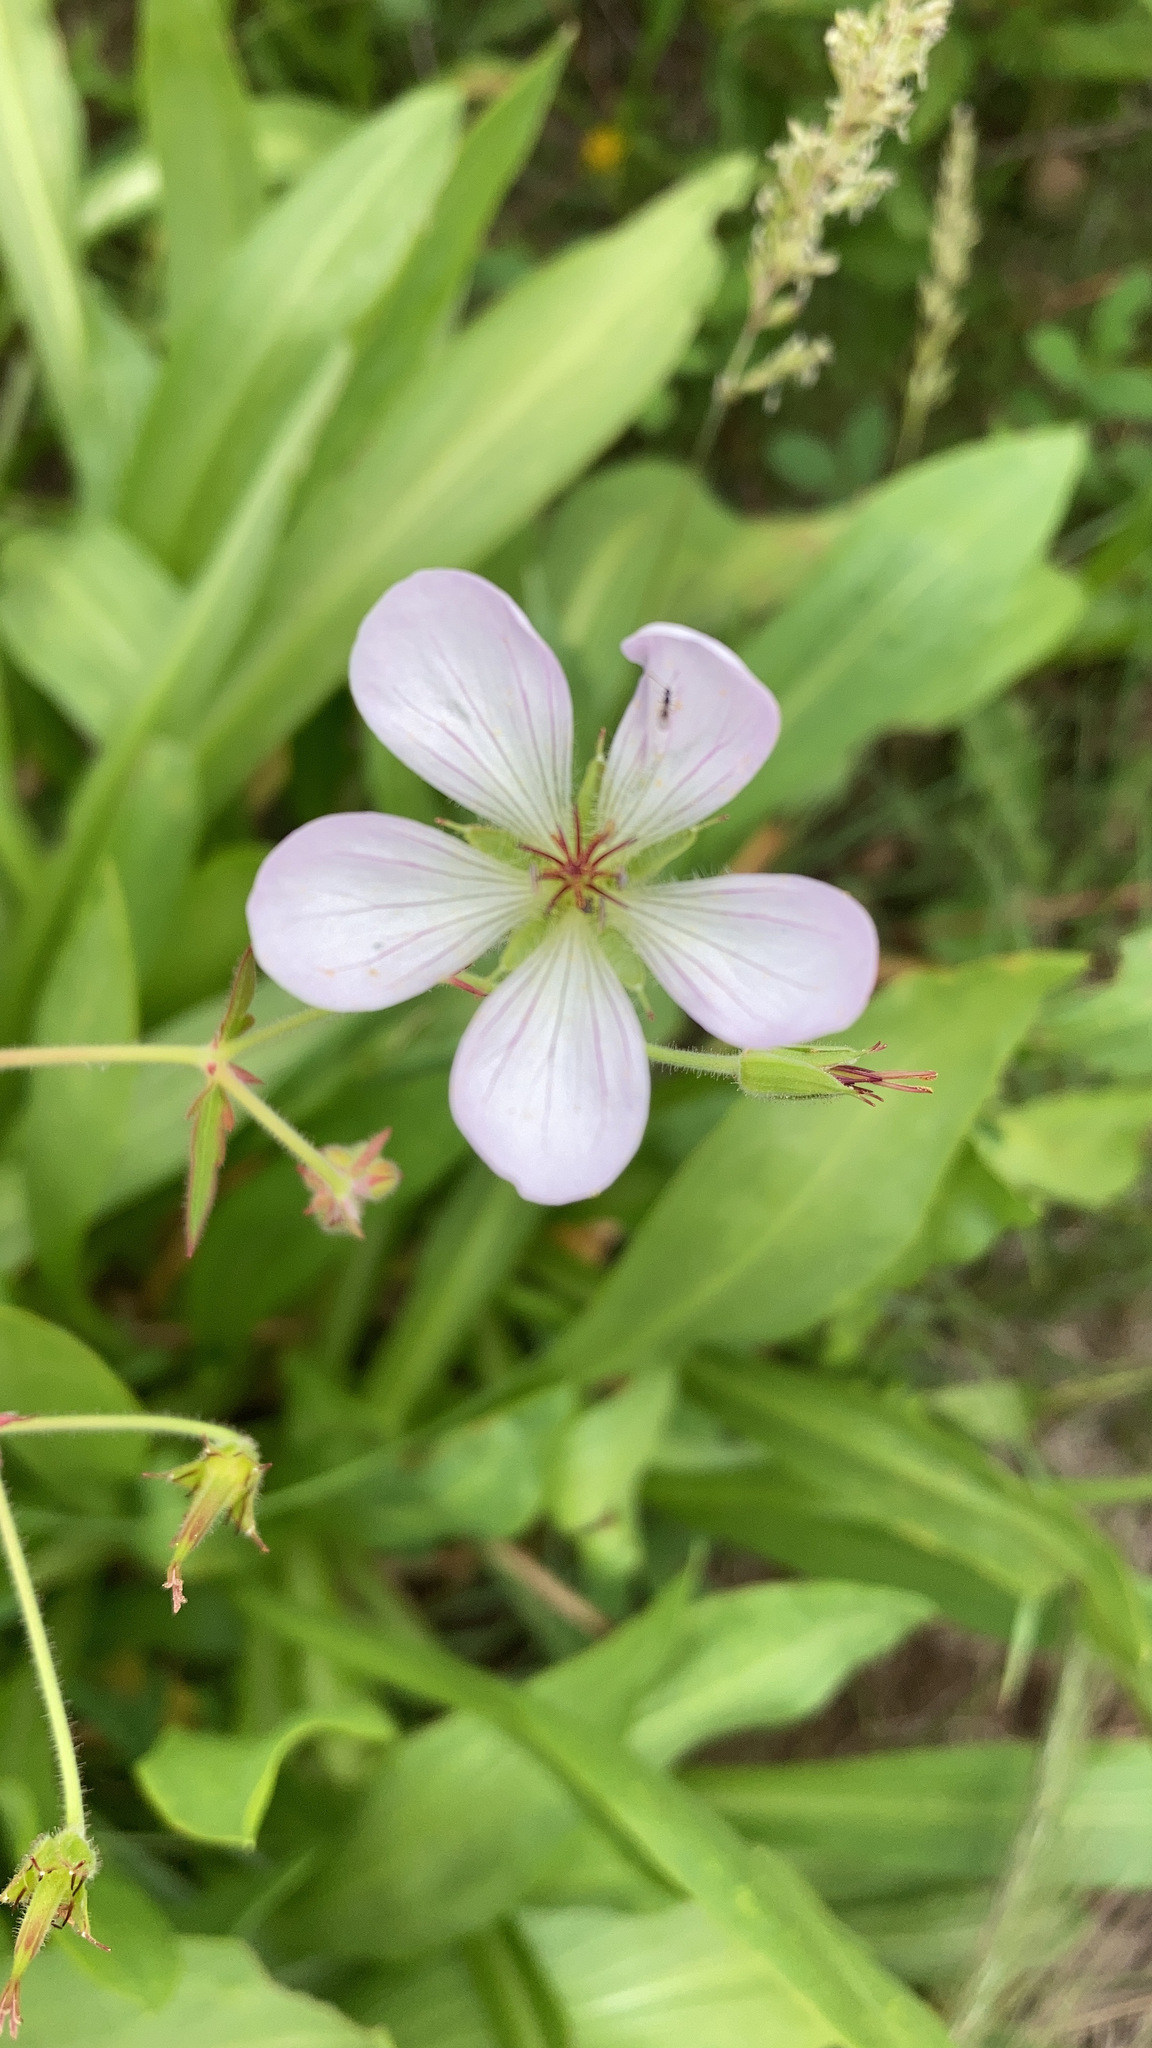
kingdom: Plantae
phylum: Tracheophyta
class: Magnoliopsida
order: Geraniales
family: Geraniaceae
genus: Geranium
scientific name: Geranium richardsonii
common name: Richardson's crane's-bill
